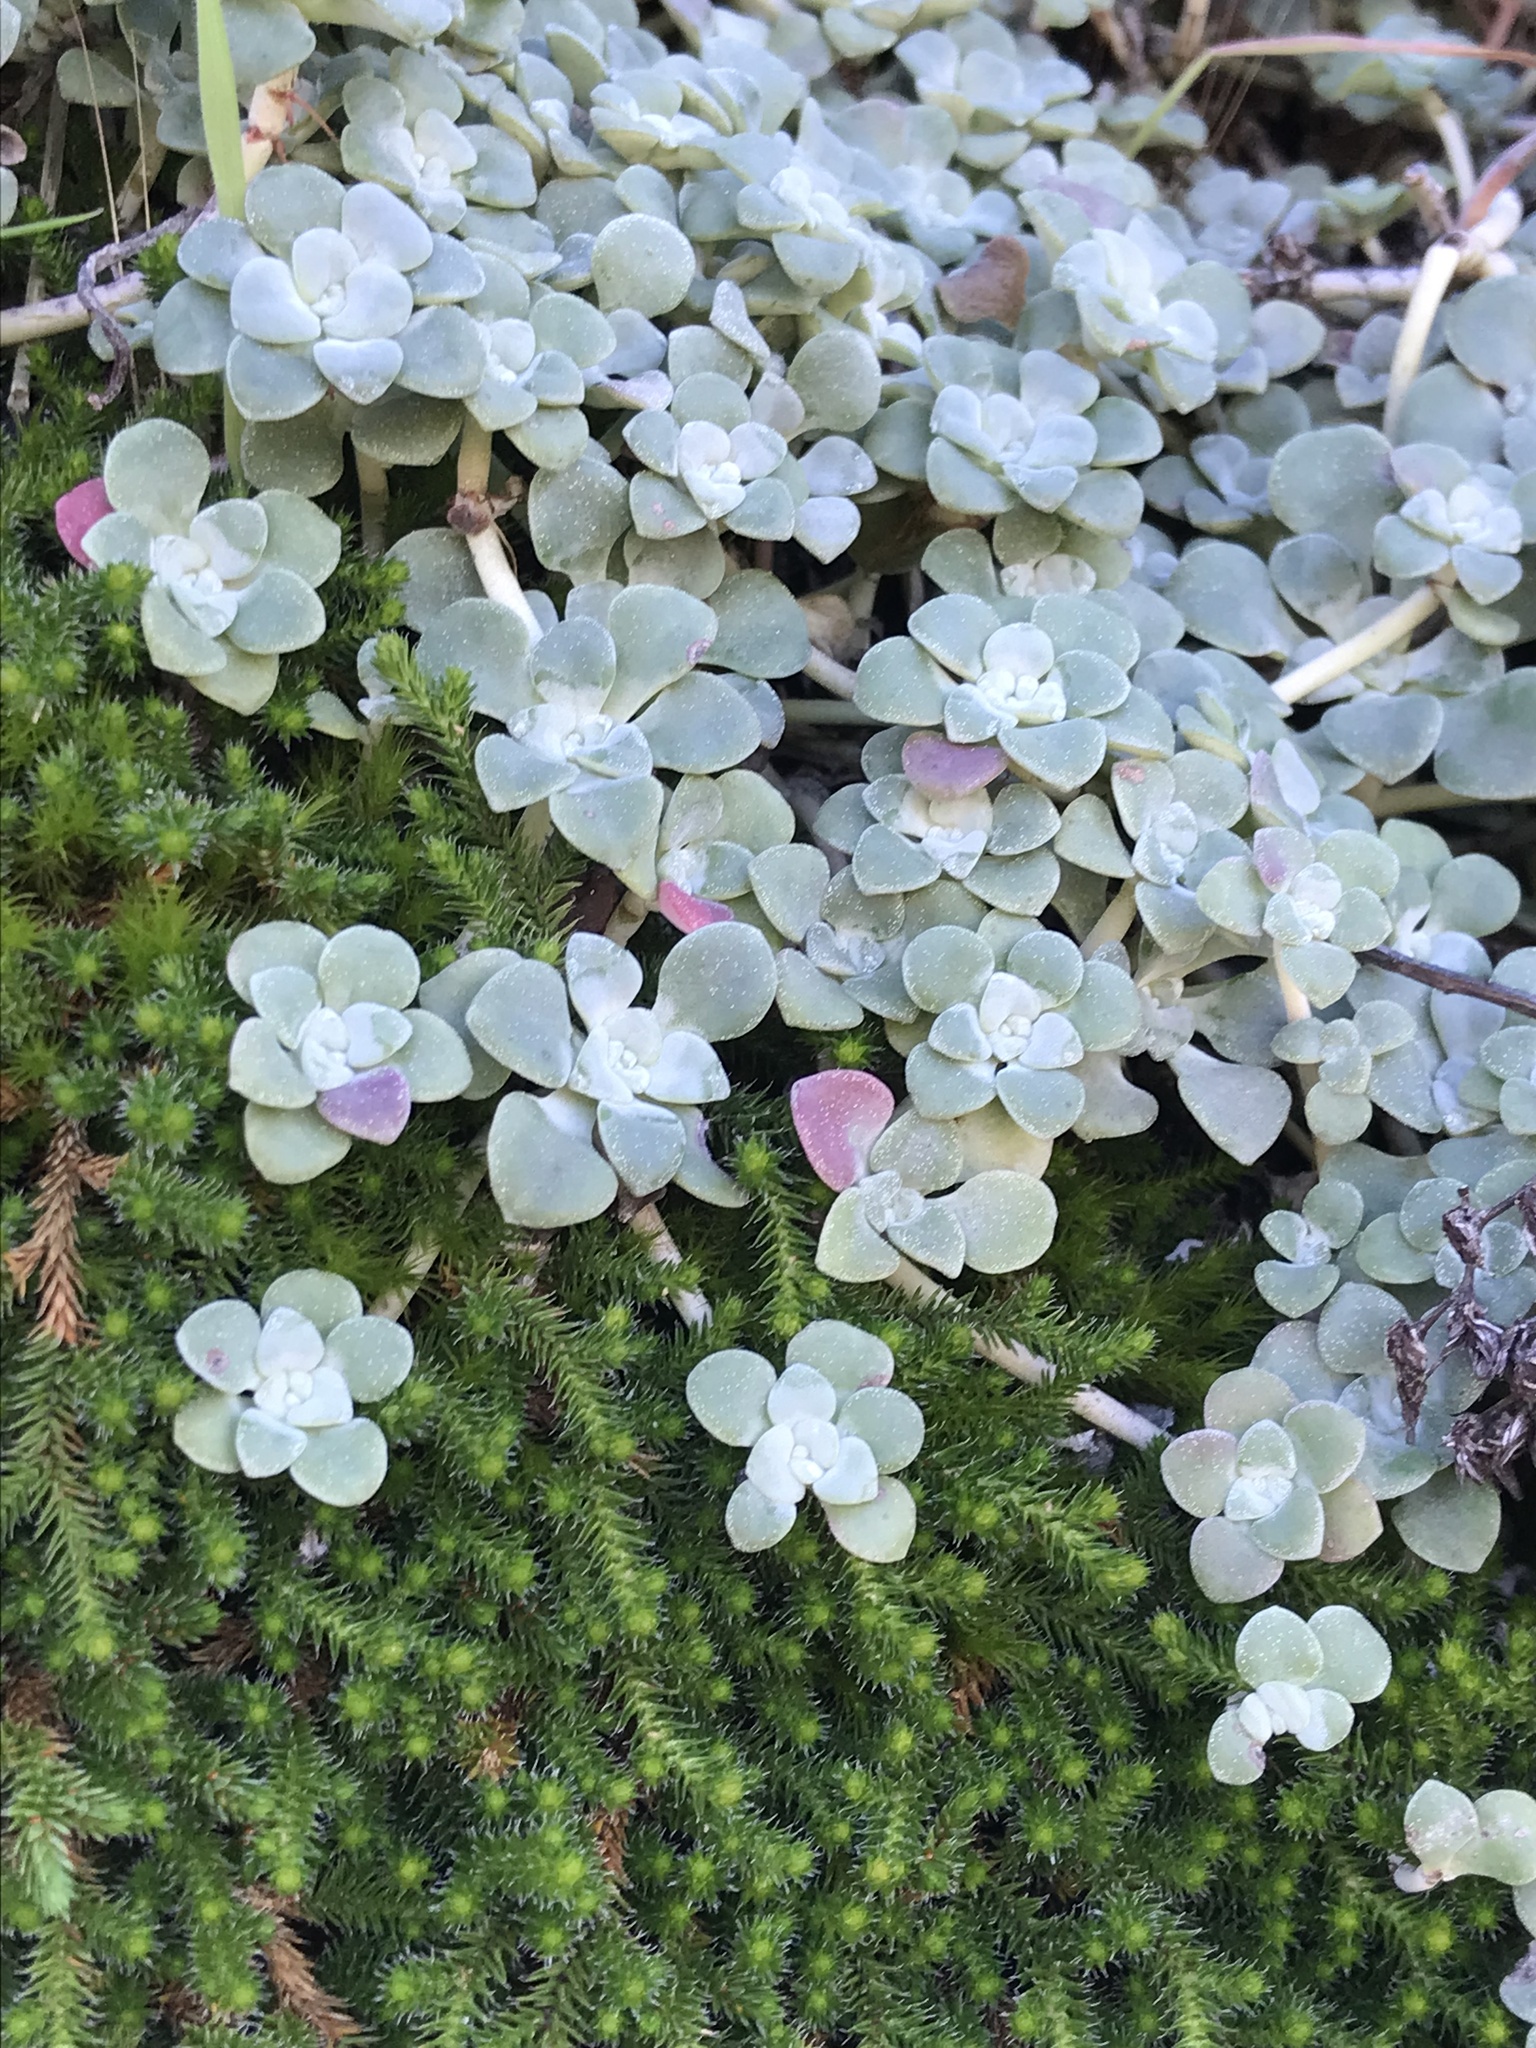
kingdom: Plantae
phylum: Tracheophyta
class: Magnoliopsida
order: Saxifragales
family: Crassulaceae
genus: Sedum
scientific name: Sedum spathulifolium
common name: Colorado stonecrop
